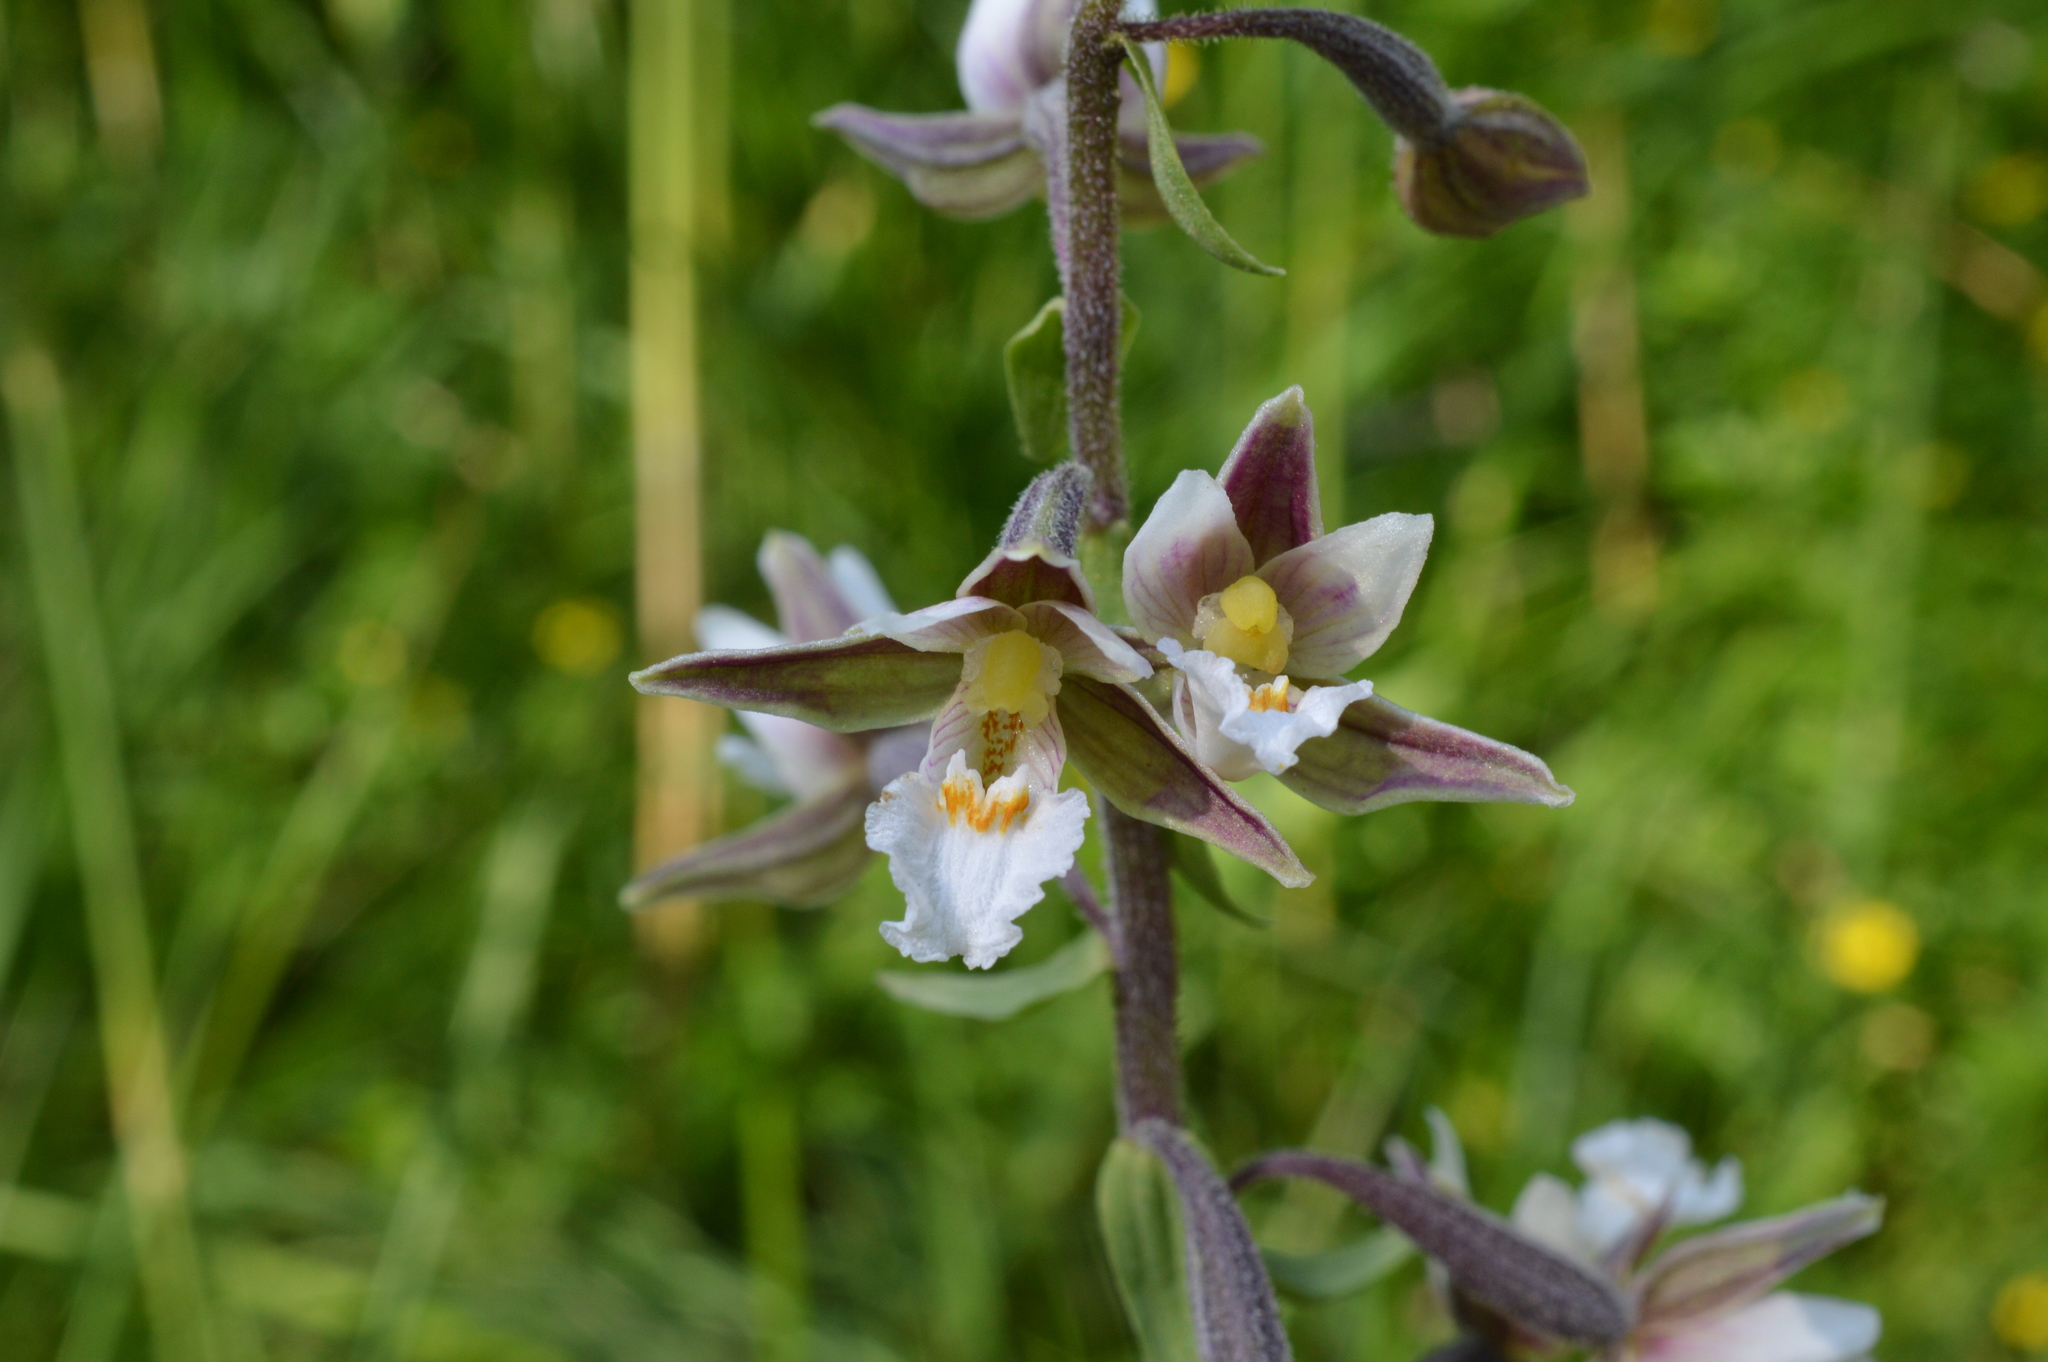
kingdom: Plantae
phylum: Tracheophyta
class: Liliopsida
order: Asparagales
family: Orchidaceae
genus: Epipactis
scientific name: Epipactis palustris
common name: Marsh helleborine
